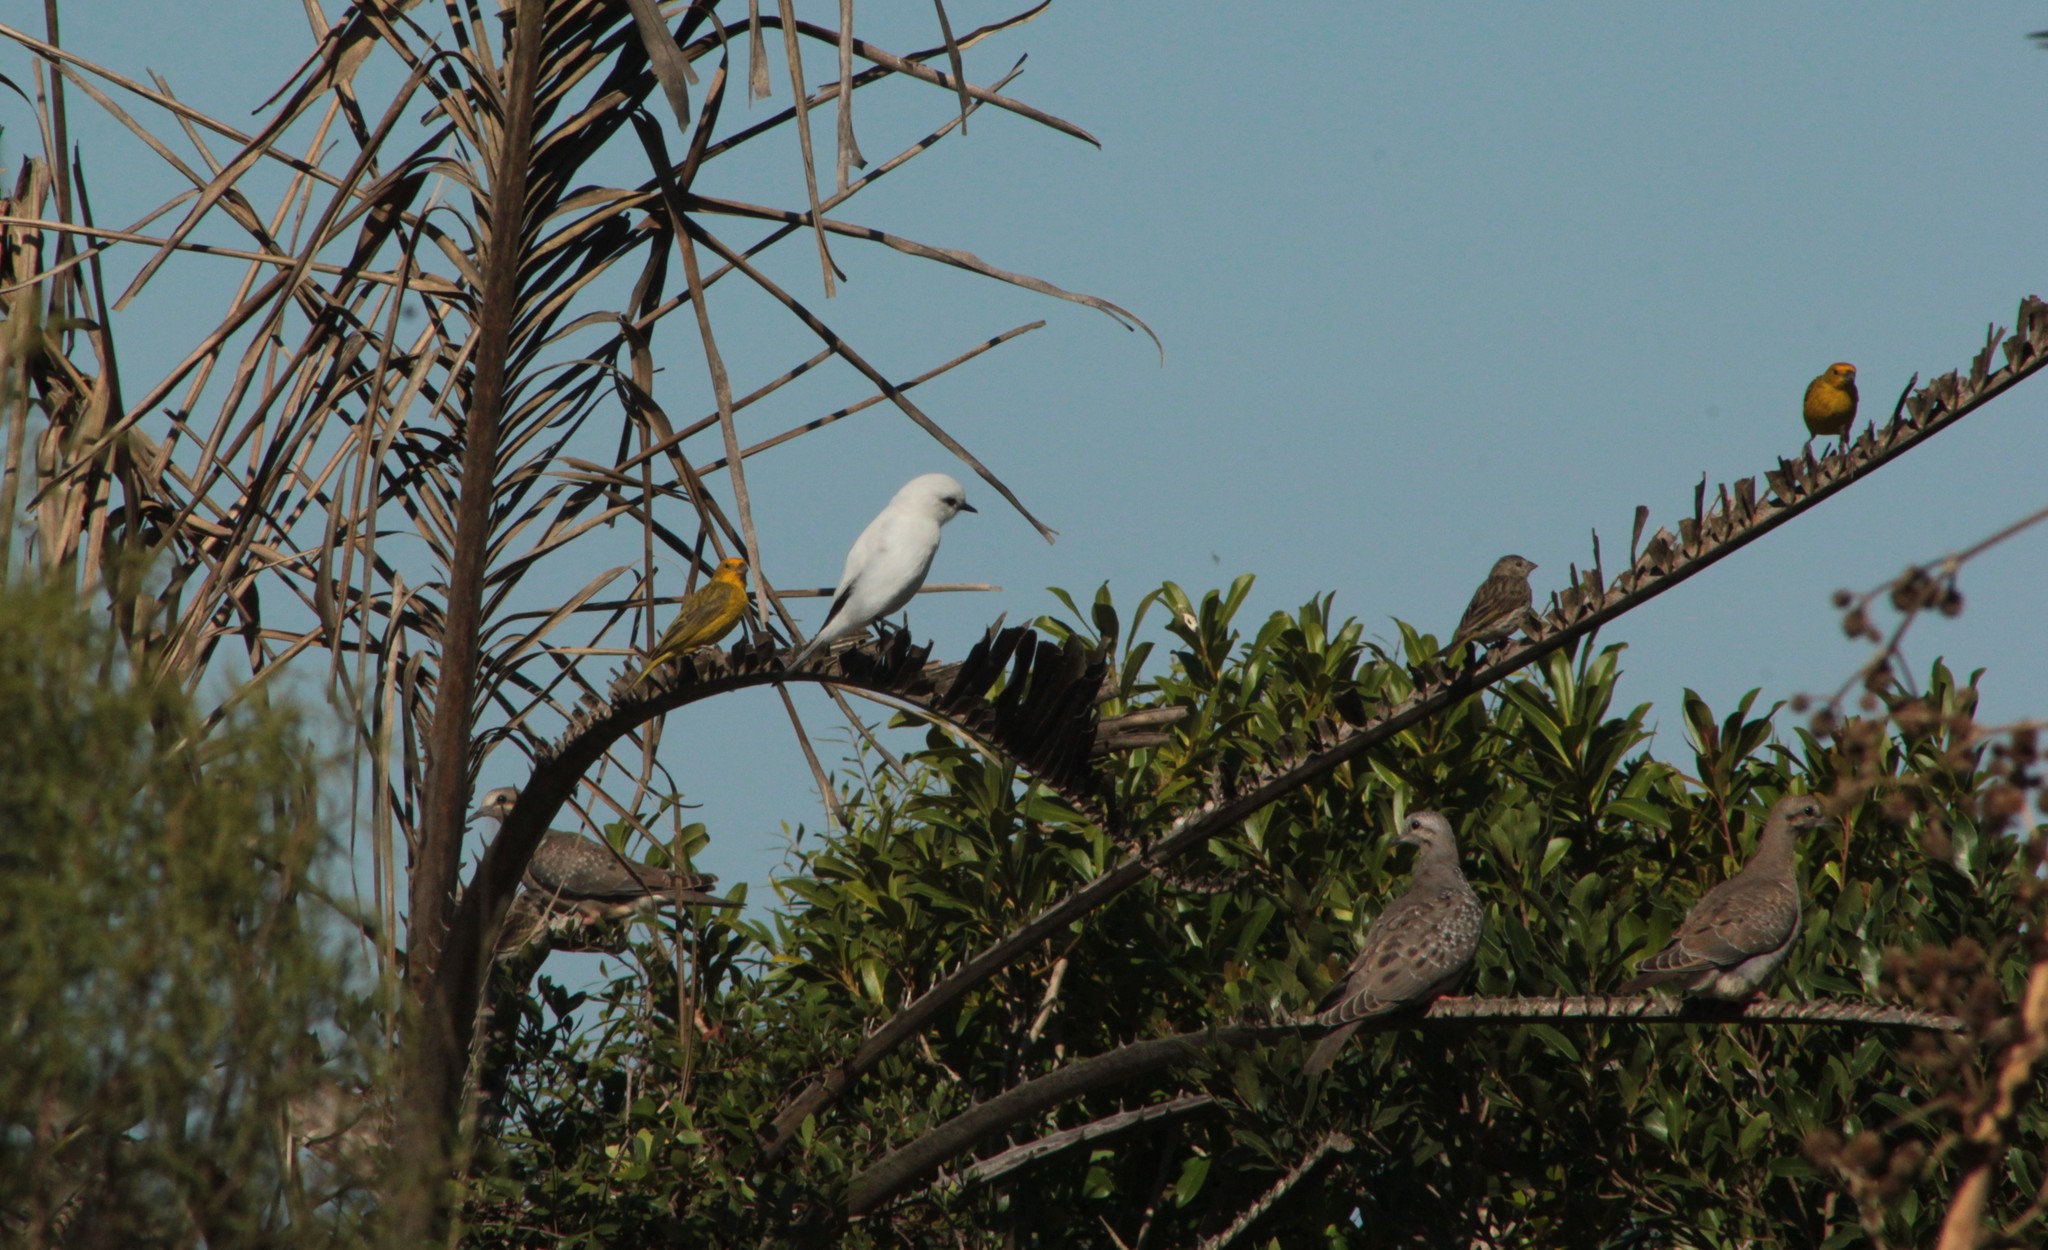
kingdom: Animalia
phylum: Chordata
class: Aves
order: Passeriformes
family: Tyrannidae
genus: Xolmis
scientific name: Xolmis irupero
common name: White monjita
